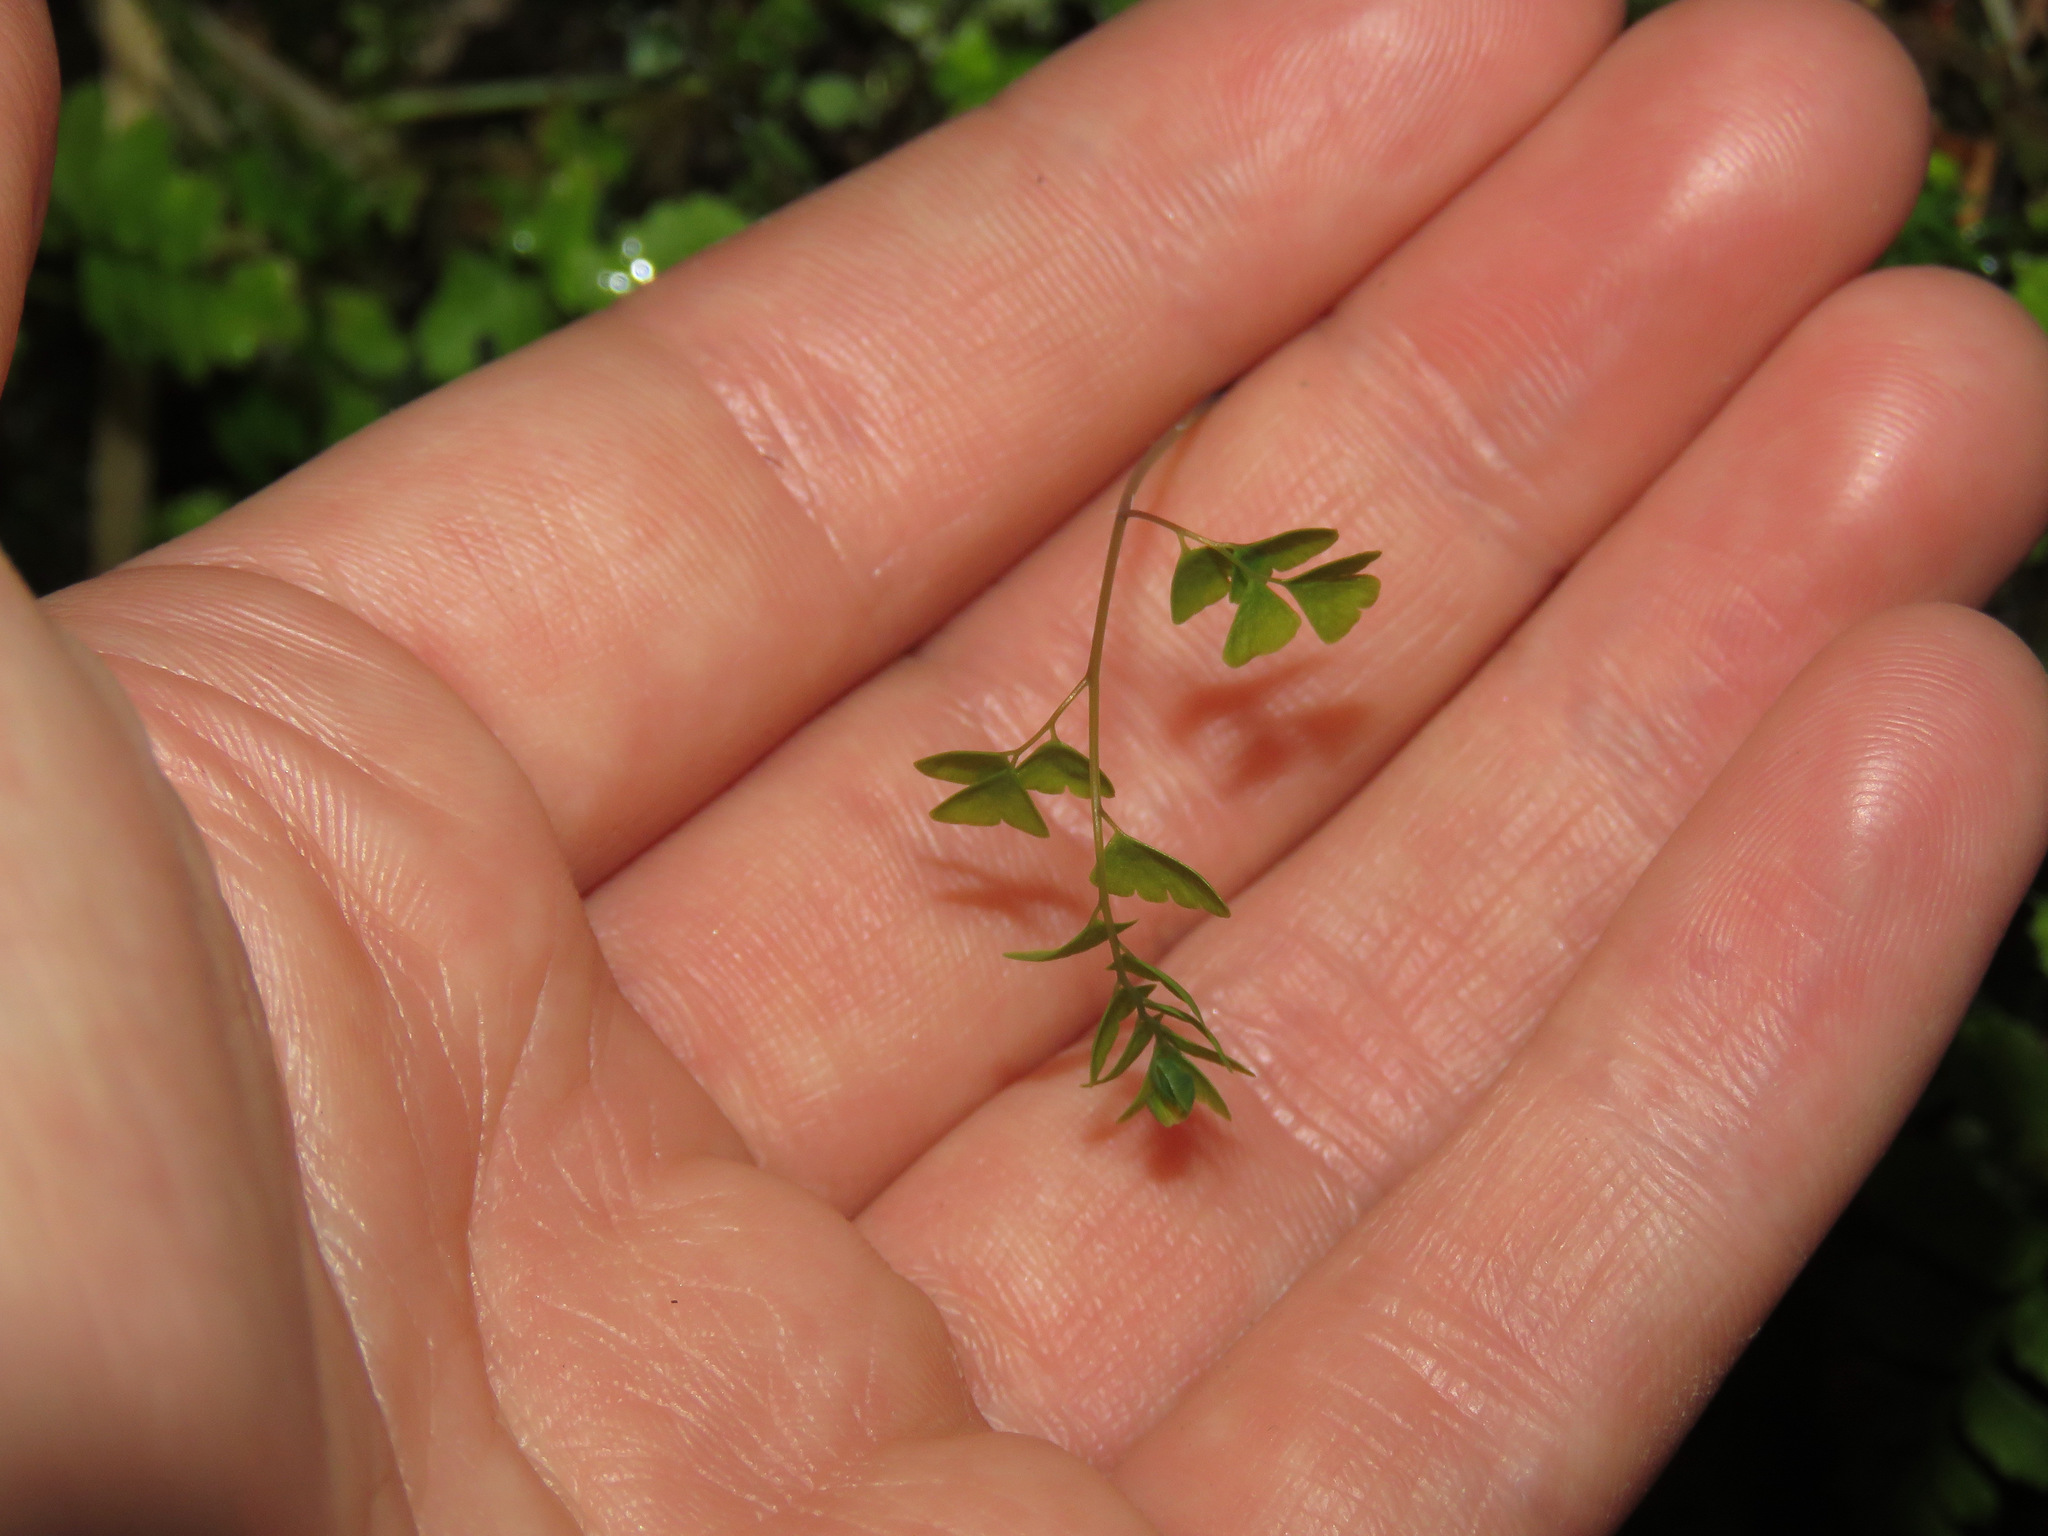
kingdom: Plantae
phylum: Tracheophyta
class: Polypodiopsida
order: Polypodiales
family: Pteridaceae
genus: Adiantum
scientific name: Adiantum aleuticum
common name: Aleutian maidenhair fern
